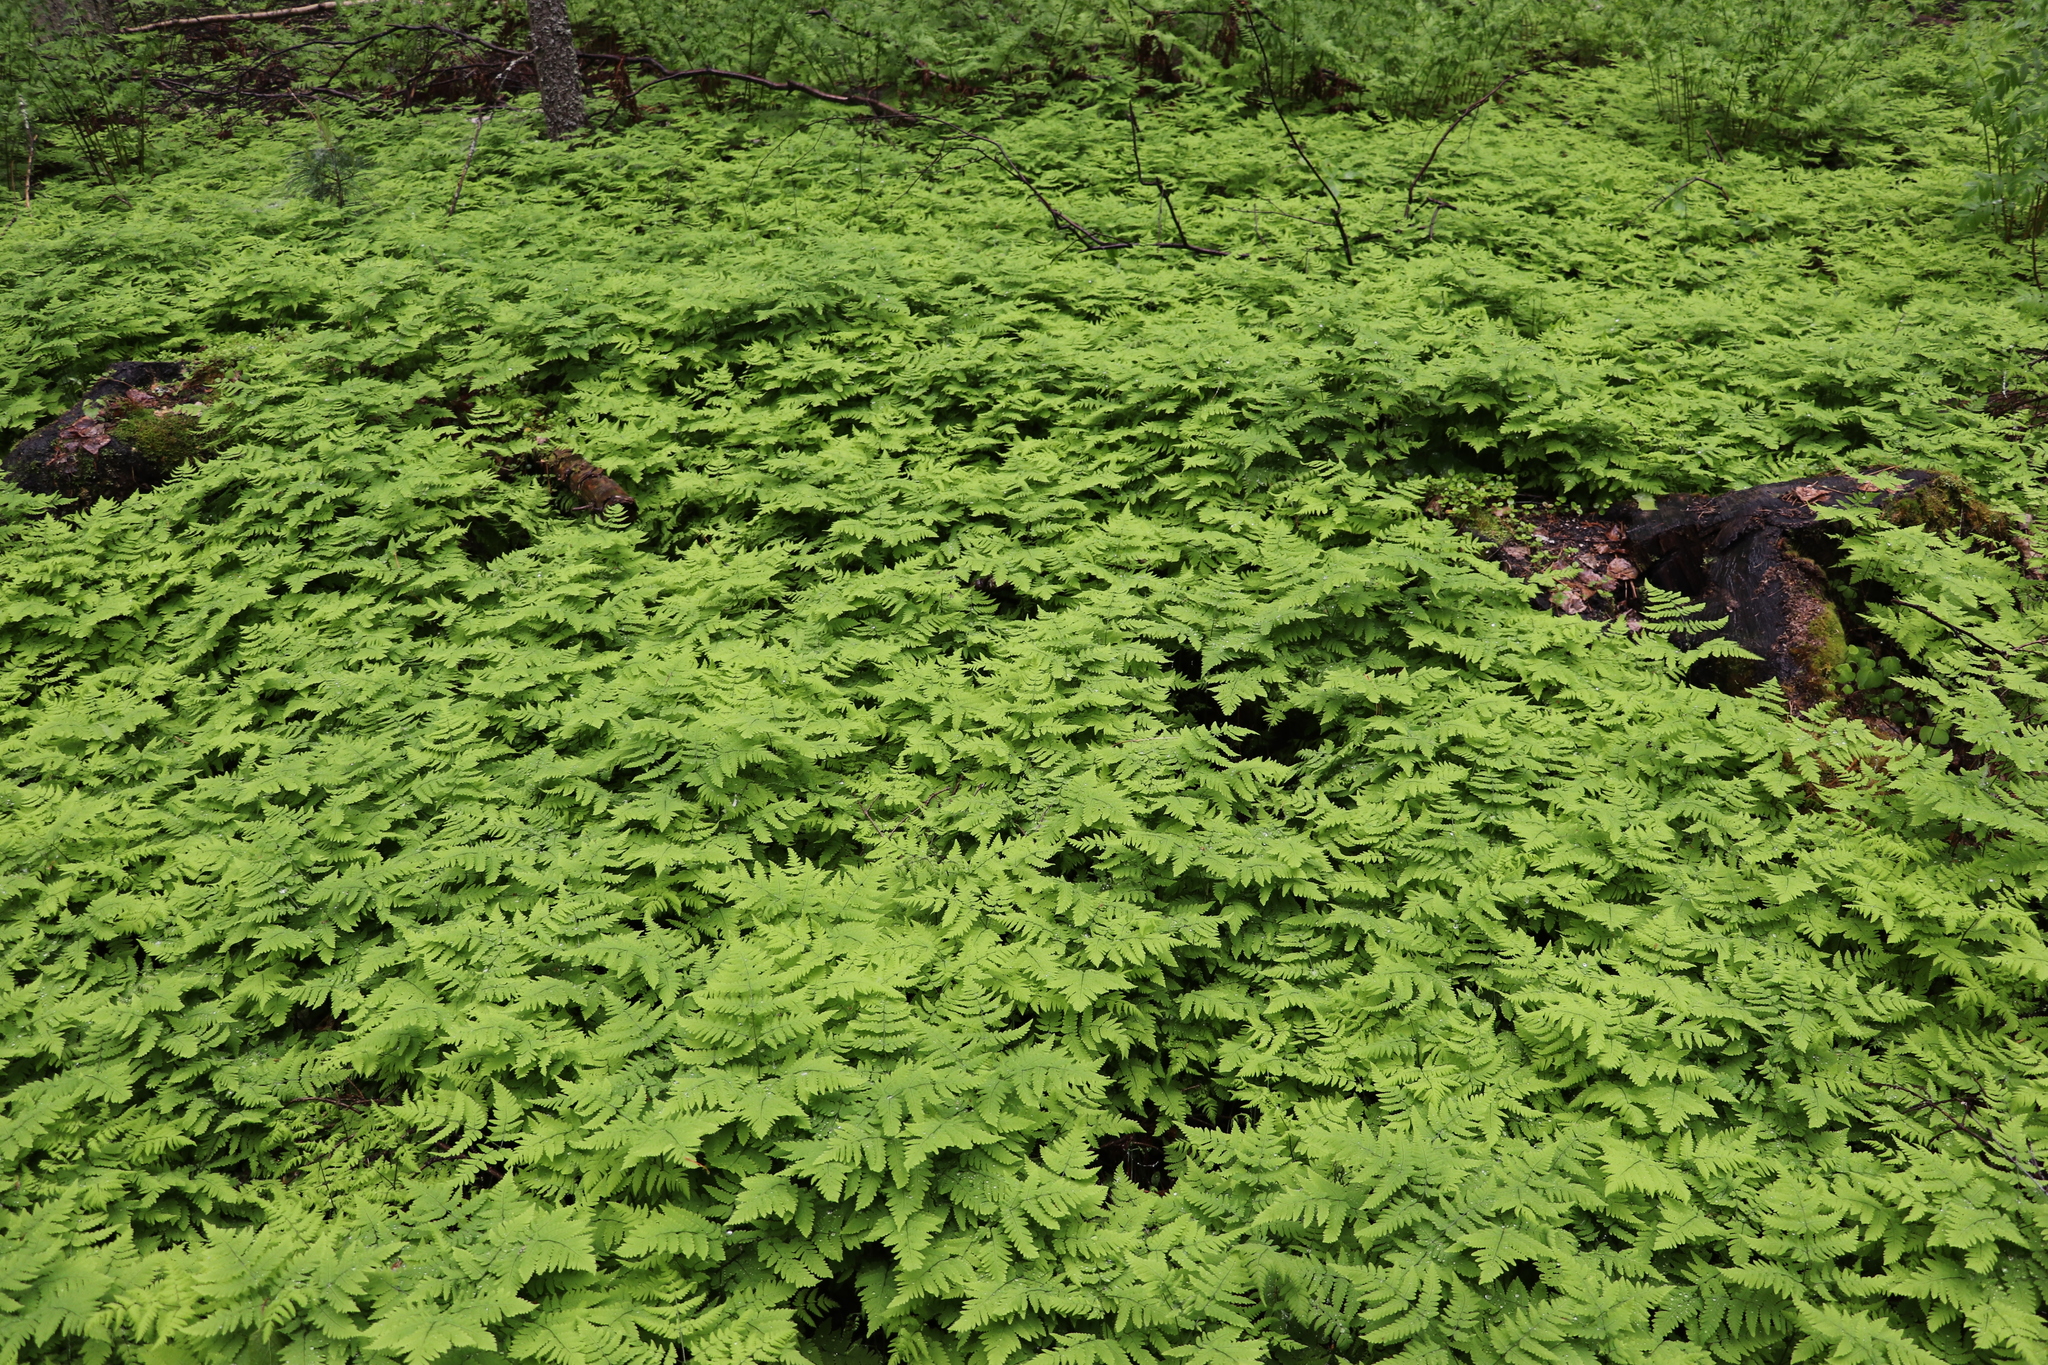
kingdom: Plantae
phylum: Tracheophyta
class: Polypodiopsida
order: Polypodiales
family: Cystopteridaceae
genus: Gymnocarpium
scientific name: Gymnocarpium dryopteris
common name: Oak fern
